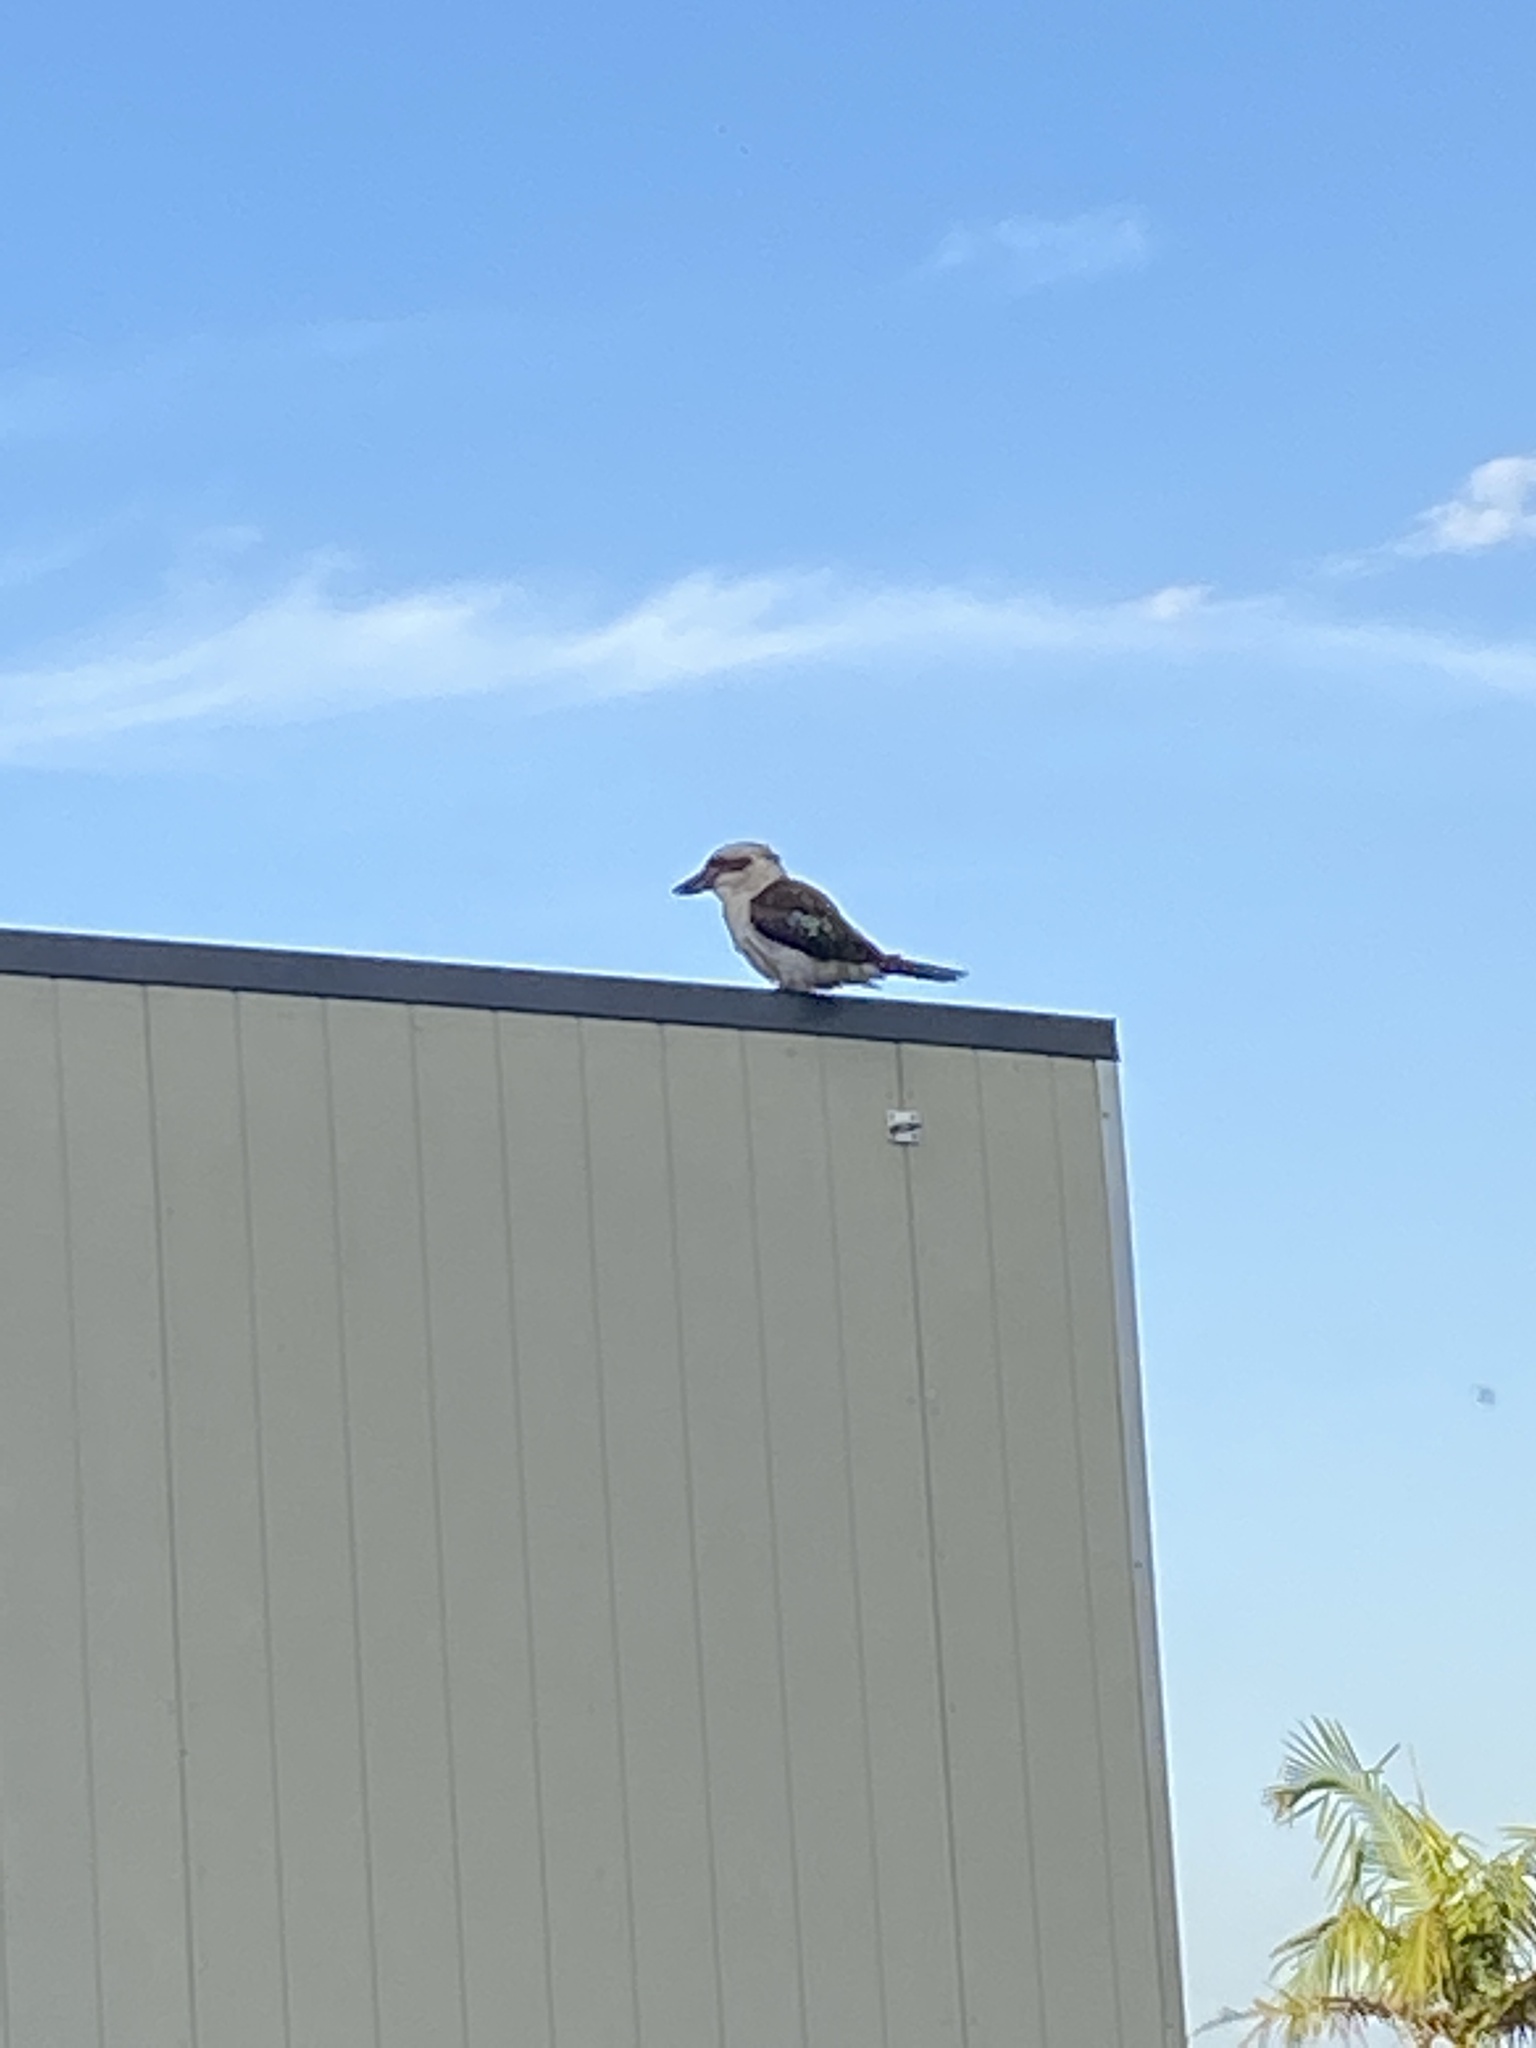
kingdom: Animalia
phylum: Chordata
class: Aves
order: Coraciiformes
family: Alcedinidae
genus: Dacelo
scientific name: Dacelo novaeguineae
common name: Laughing kookaburra
